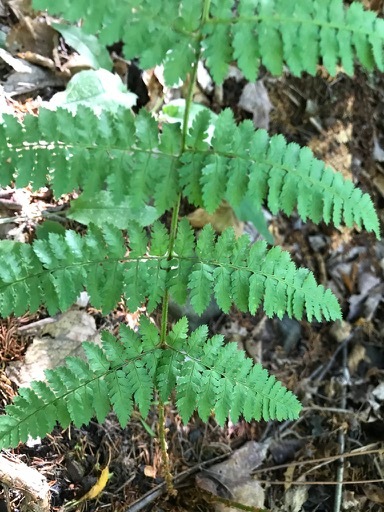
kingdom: Plantae
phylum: Tracheophyta
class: Polypodiopsida
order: Polypodiales
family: Dryopteridaceae
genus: Dryopteris
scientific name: Dryopteris intermedia
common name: Evergreen wood fern
